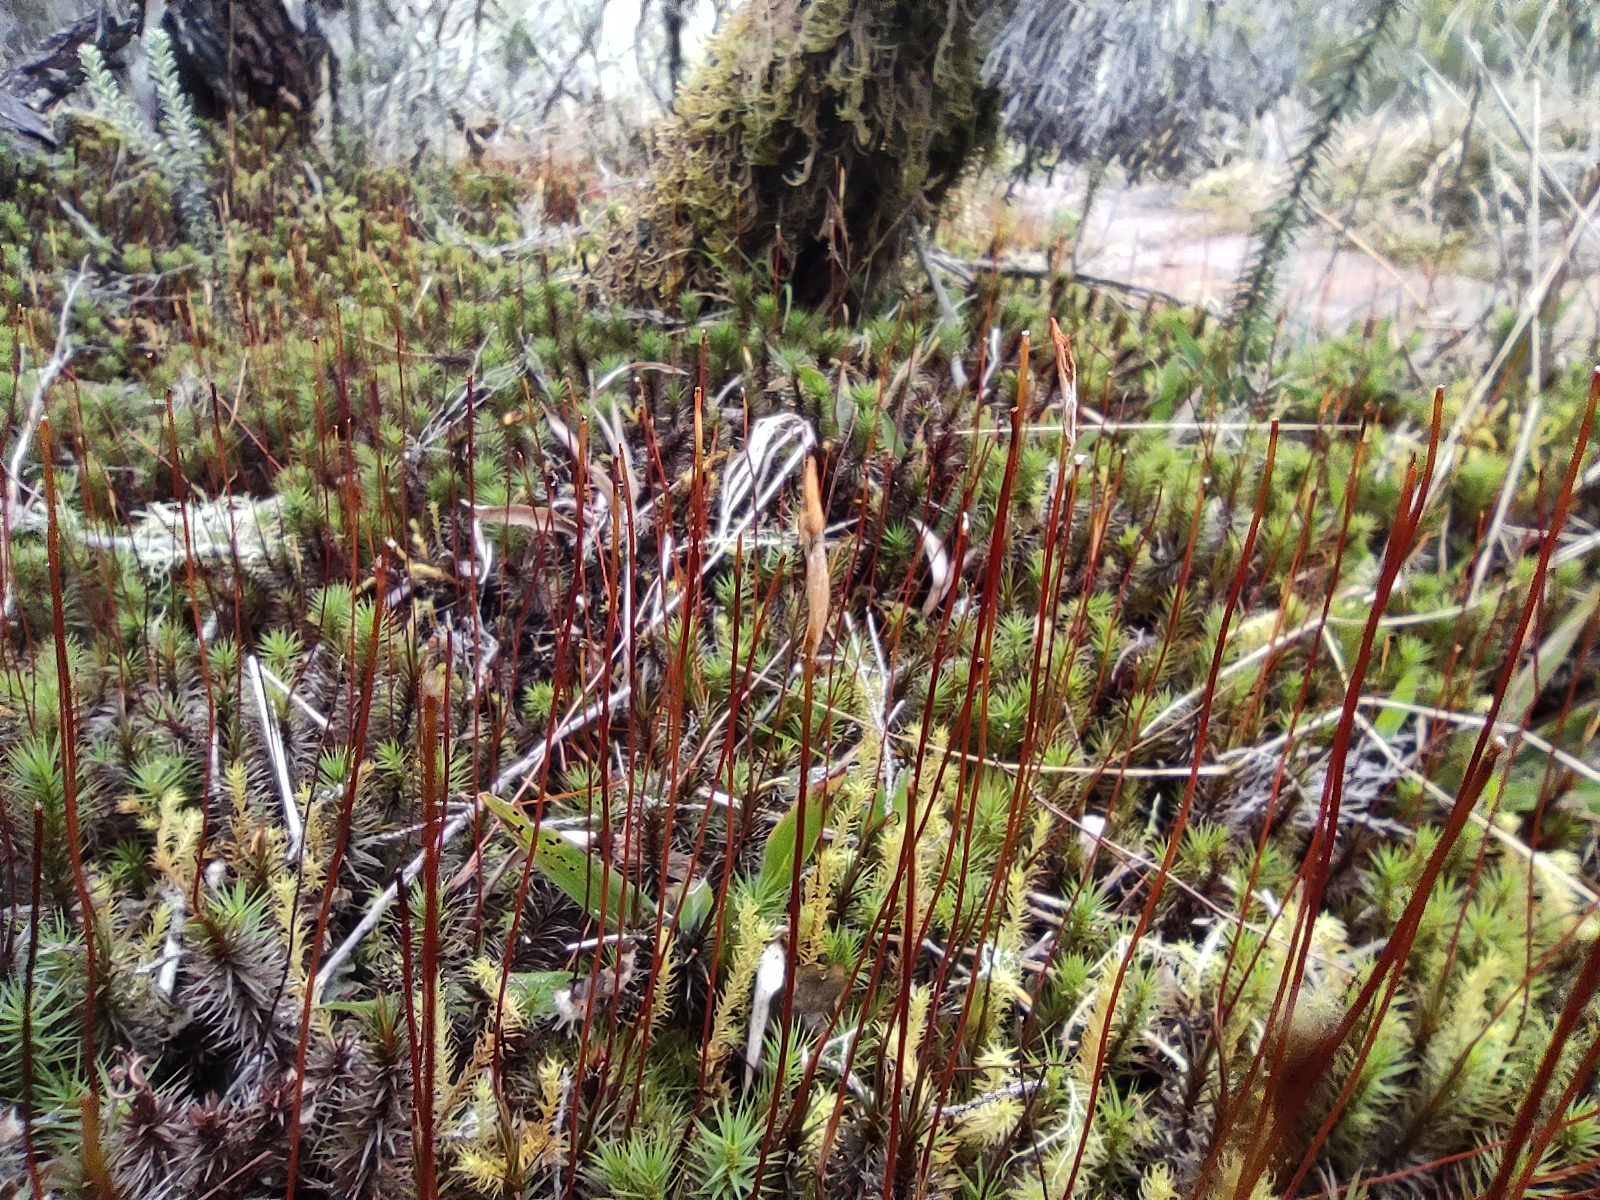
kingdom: Plantae
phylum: Bryophyta
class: Polytrichopsida
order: Polytrichales
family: Polytrichaceae
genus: Polytrichum
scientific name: Polytrichum subpilosum
